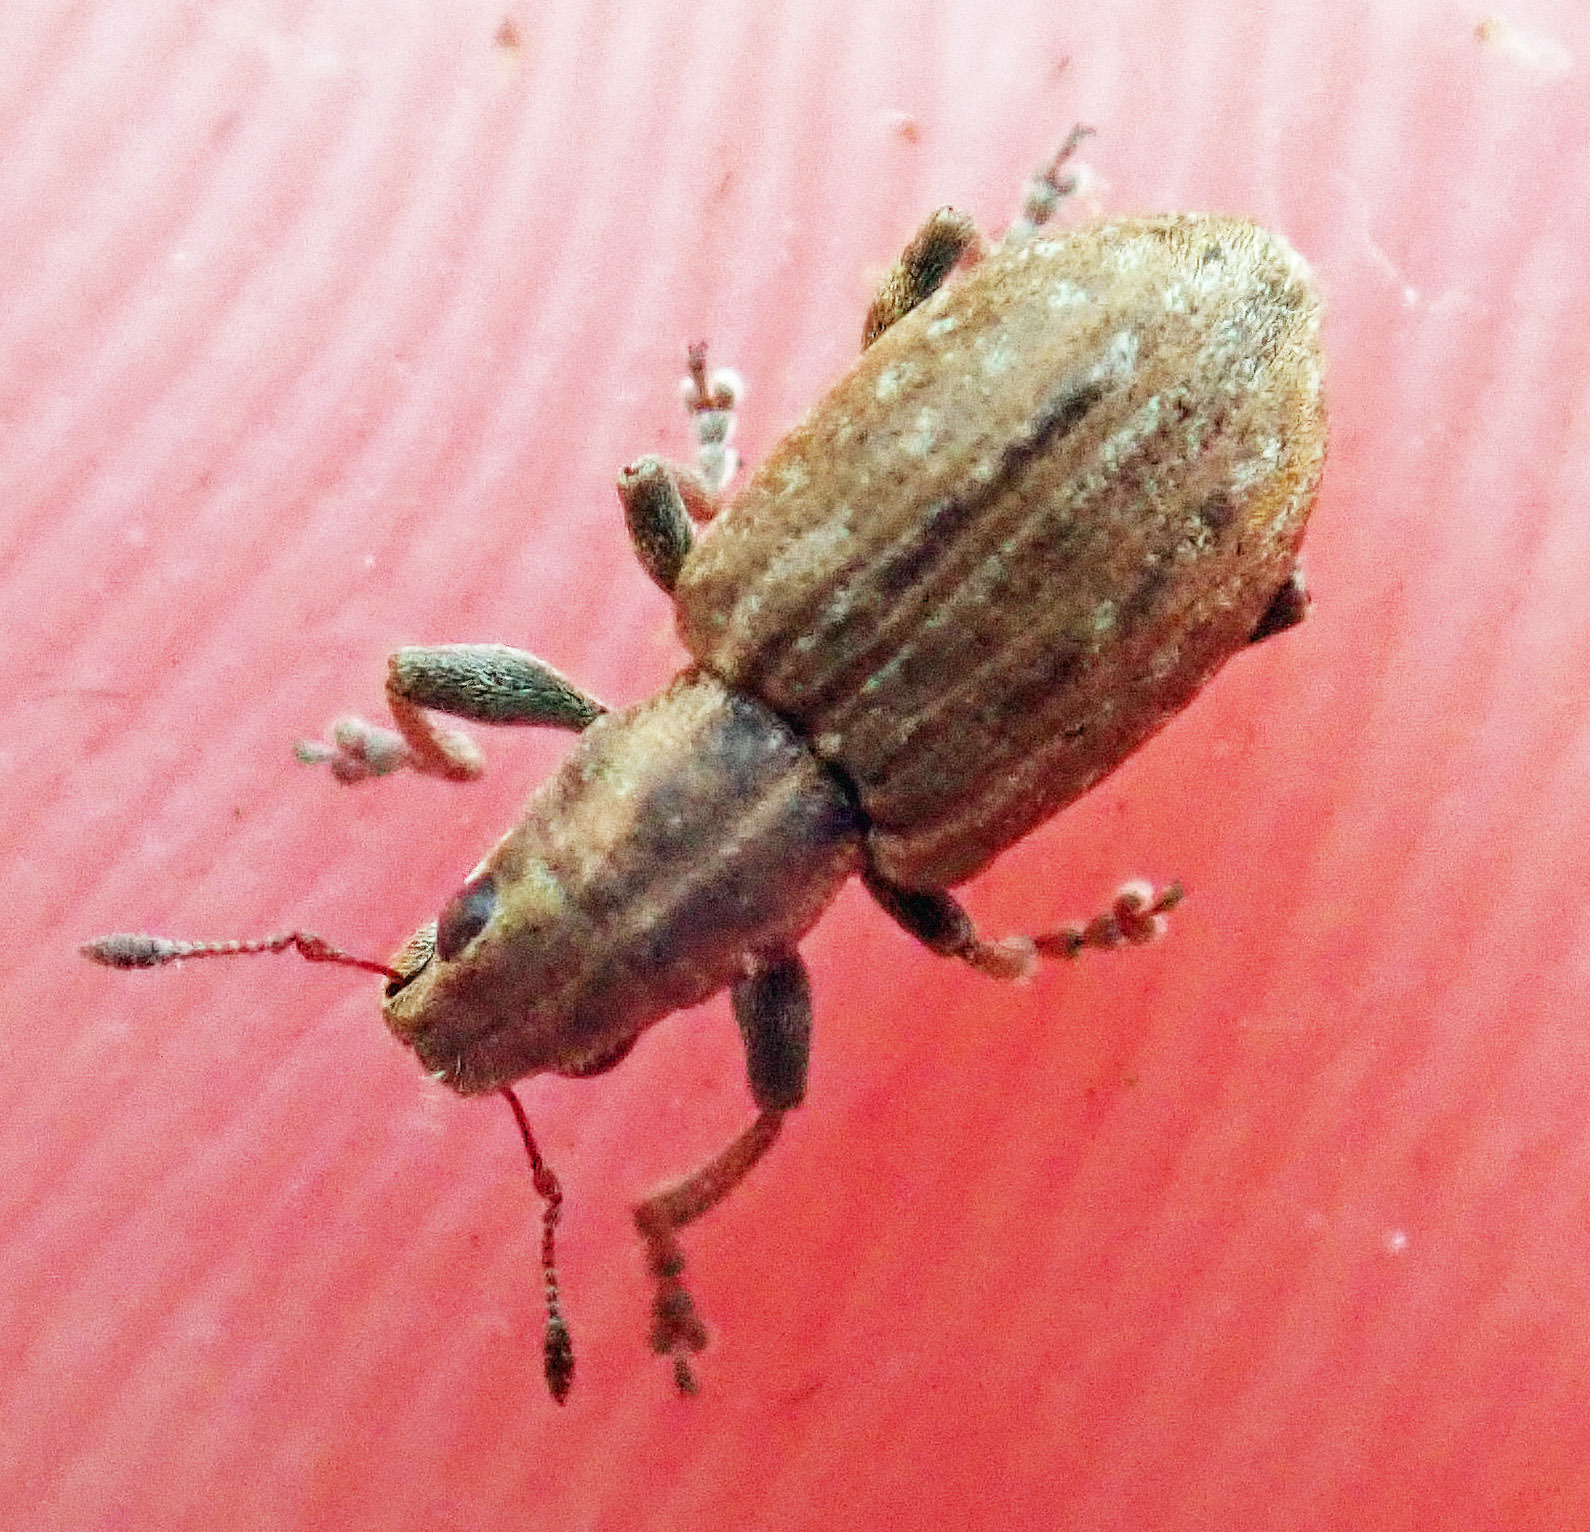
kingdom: Animalia
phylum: Arthropoda
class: Insecta
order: Coleoptera
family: Curculionidae
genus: Sitona
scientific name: Sitona obsoletus
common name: Weevil
